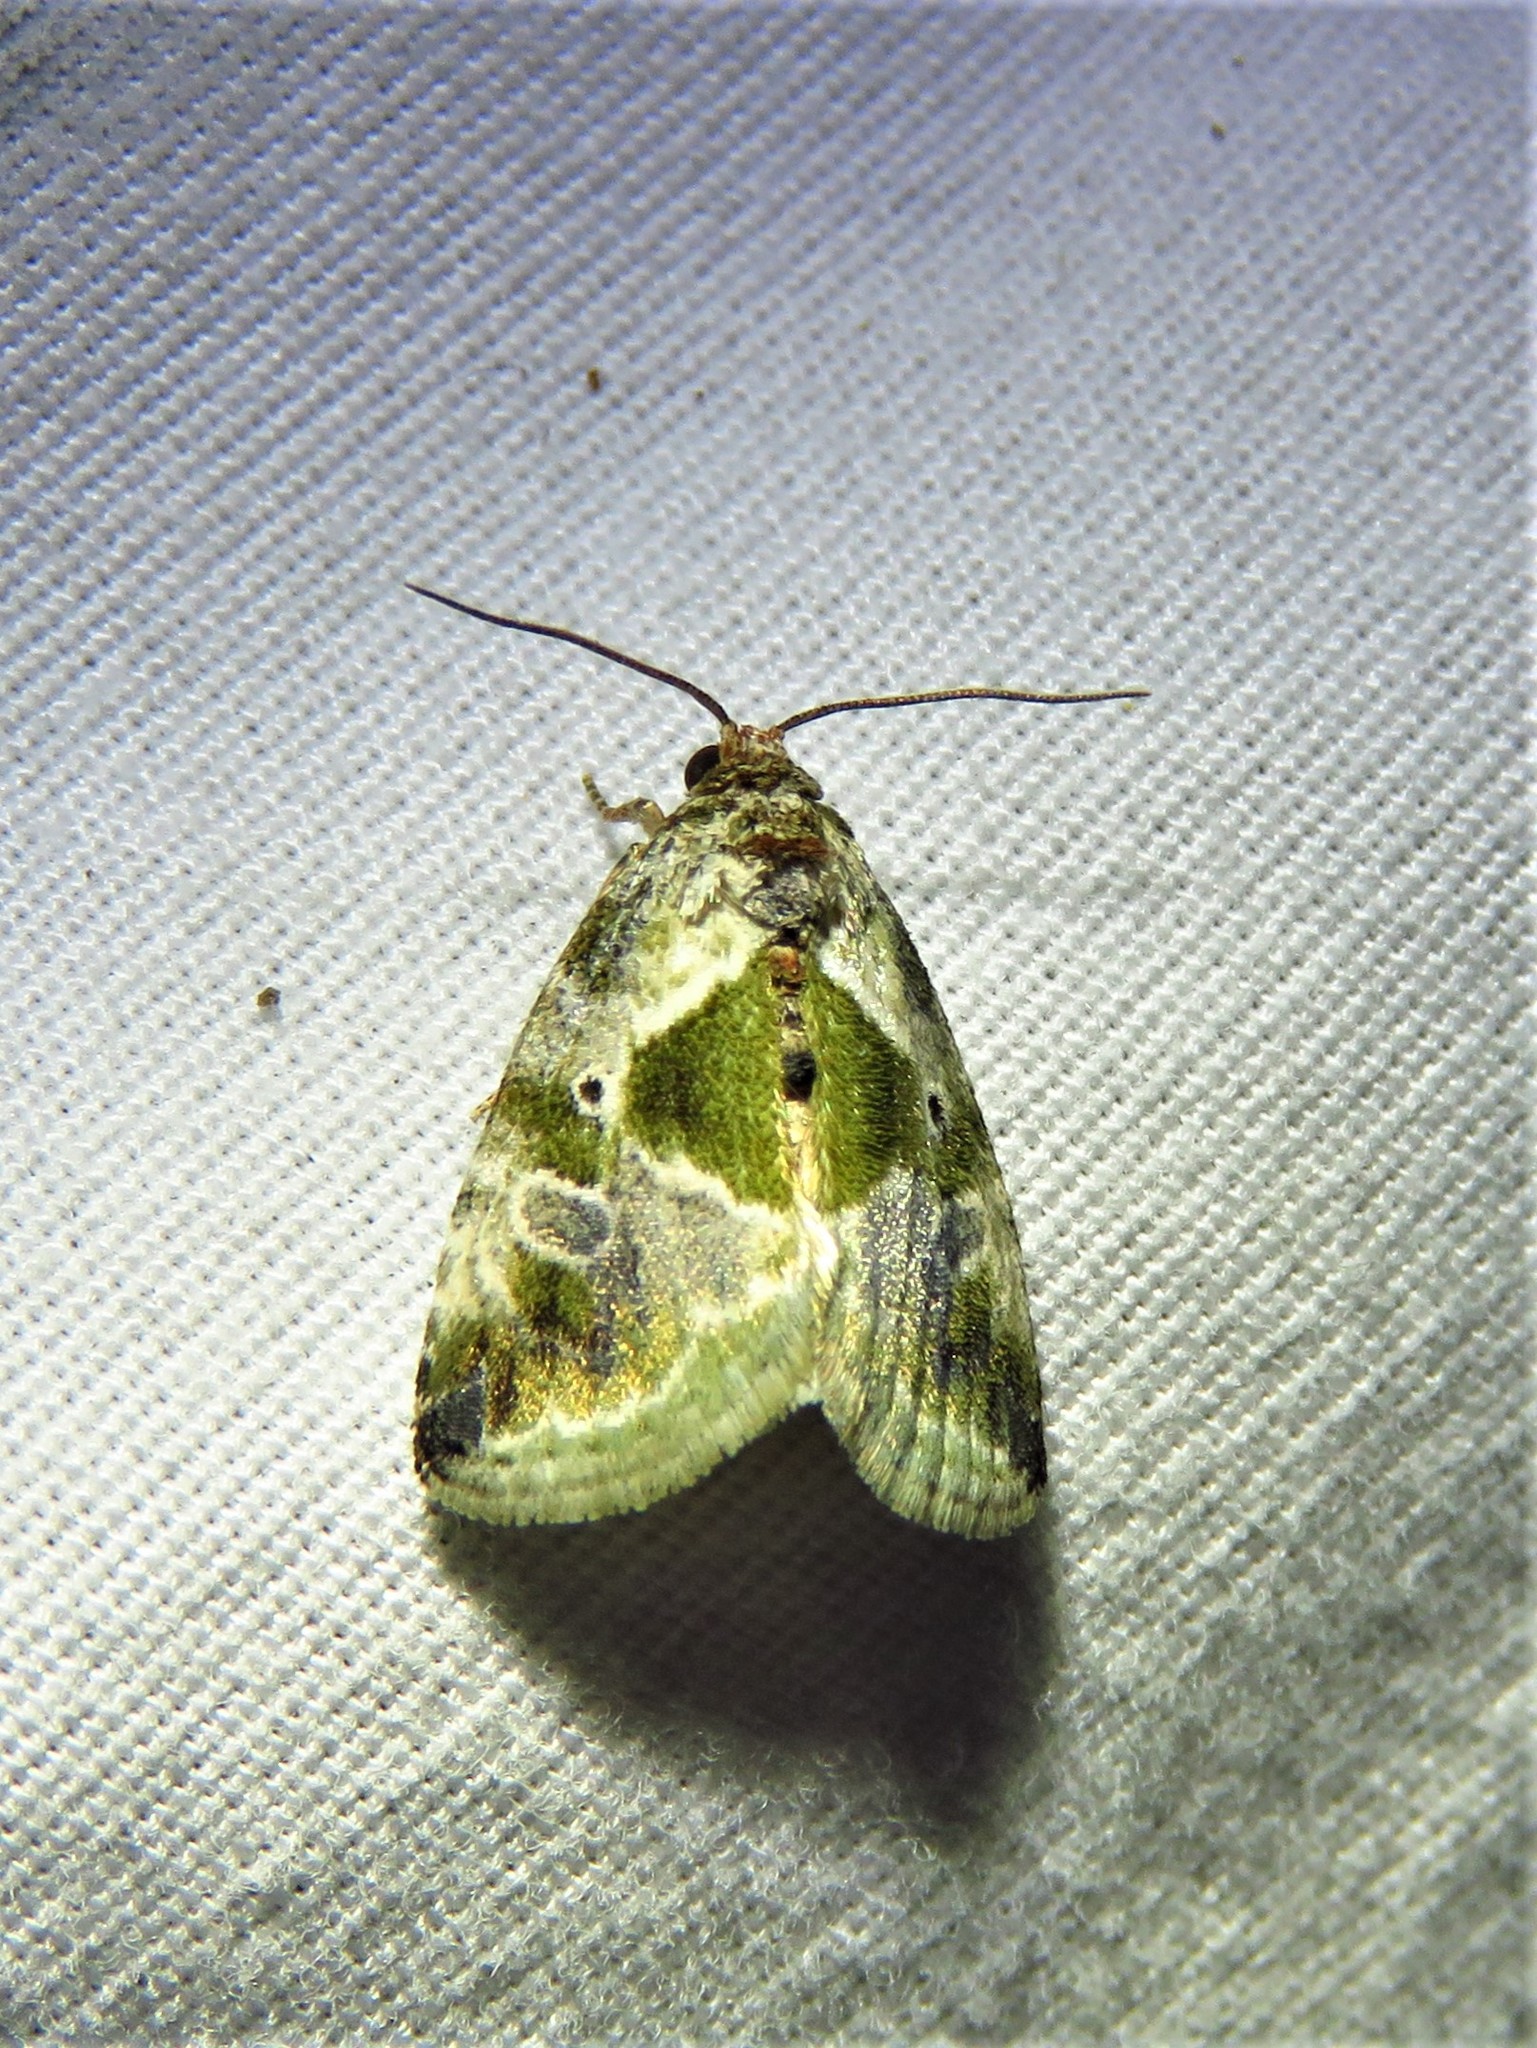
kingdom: Animalia
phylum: Arthropoda
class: Insecta
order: Lepidoptera
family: Noctuidae
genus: Maliattha
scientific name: Maliattha synochitis
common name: Black-dotted glyph
